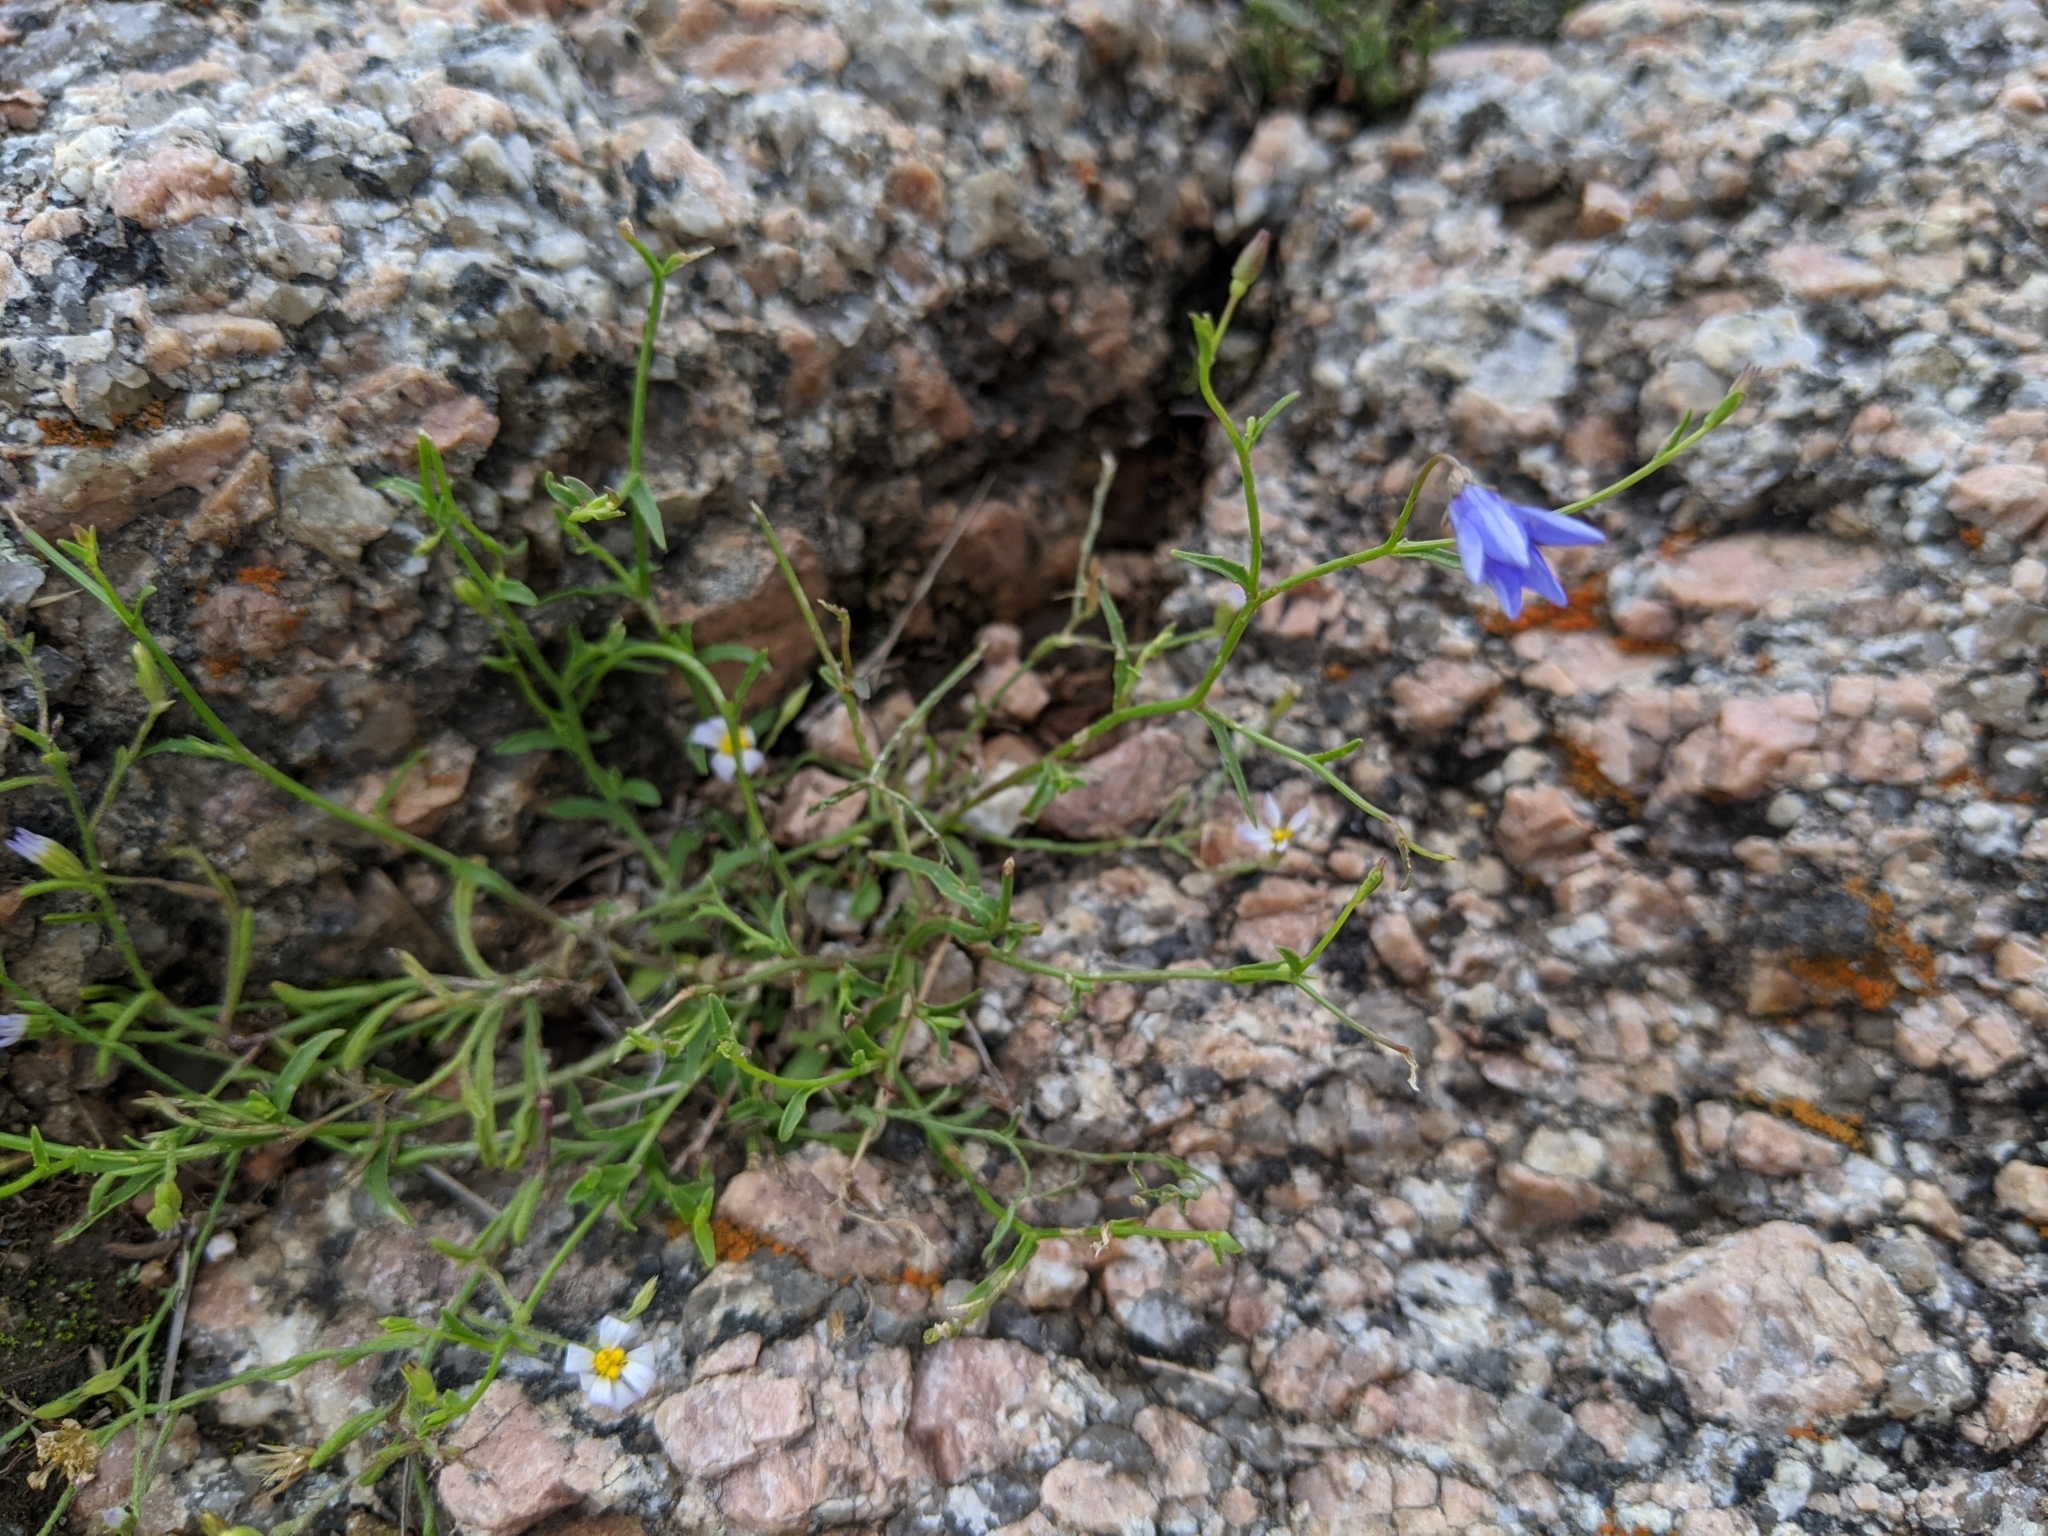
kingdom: Plantae
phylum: Tracheophyta
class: Magnoliopsida
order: Asterales
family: Campanulaceae
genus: Poolea
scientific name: Poolea reverchonii
